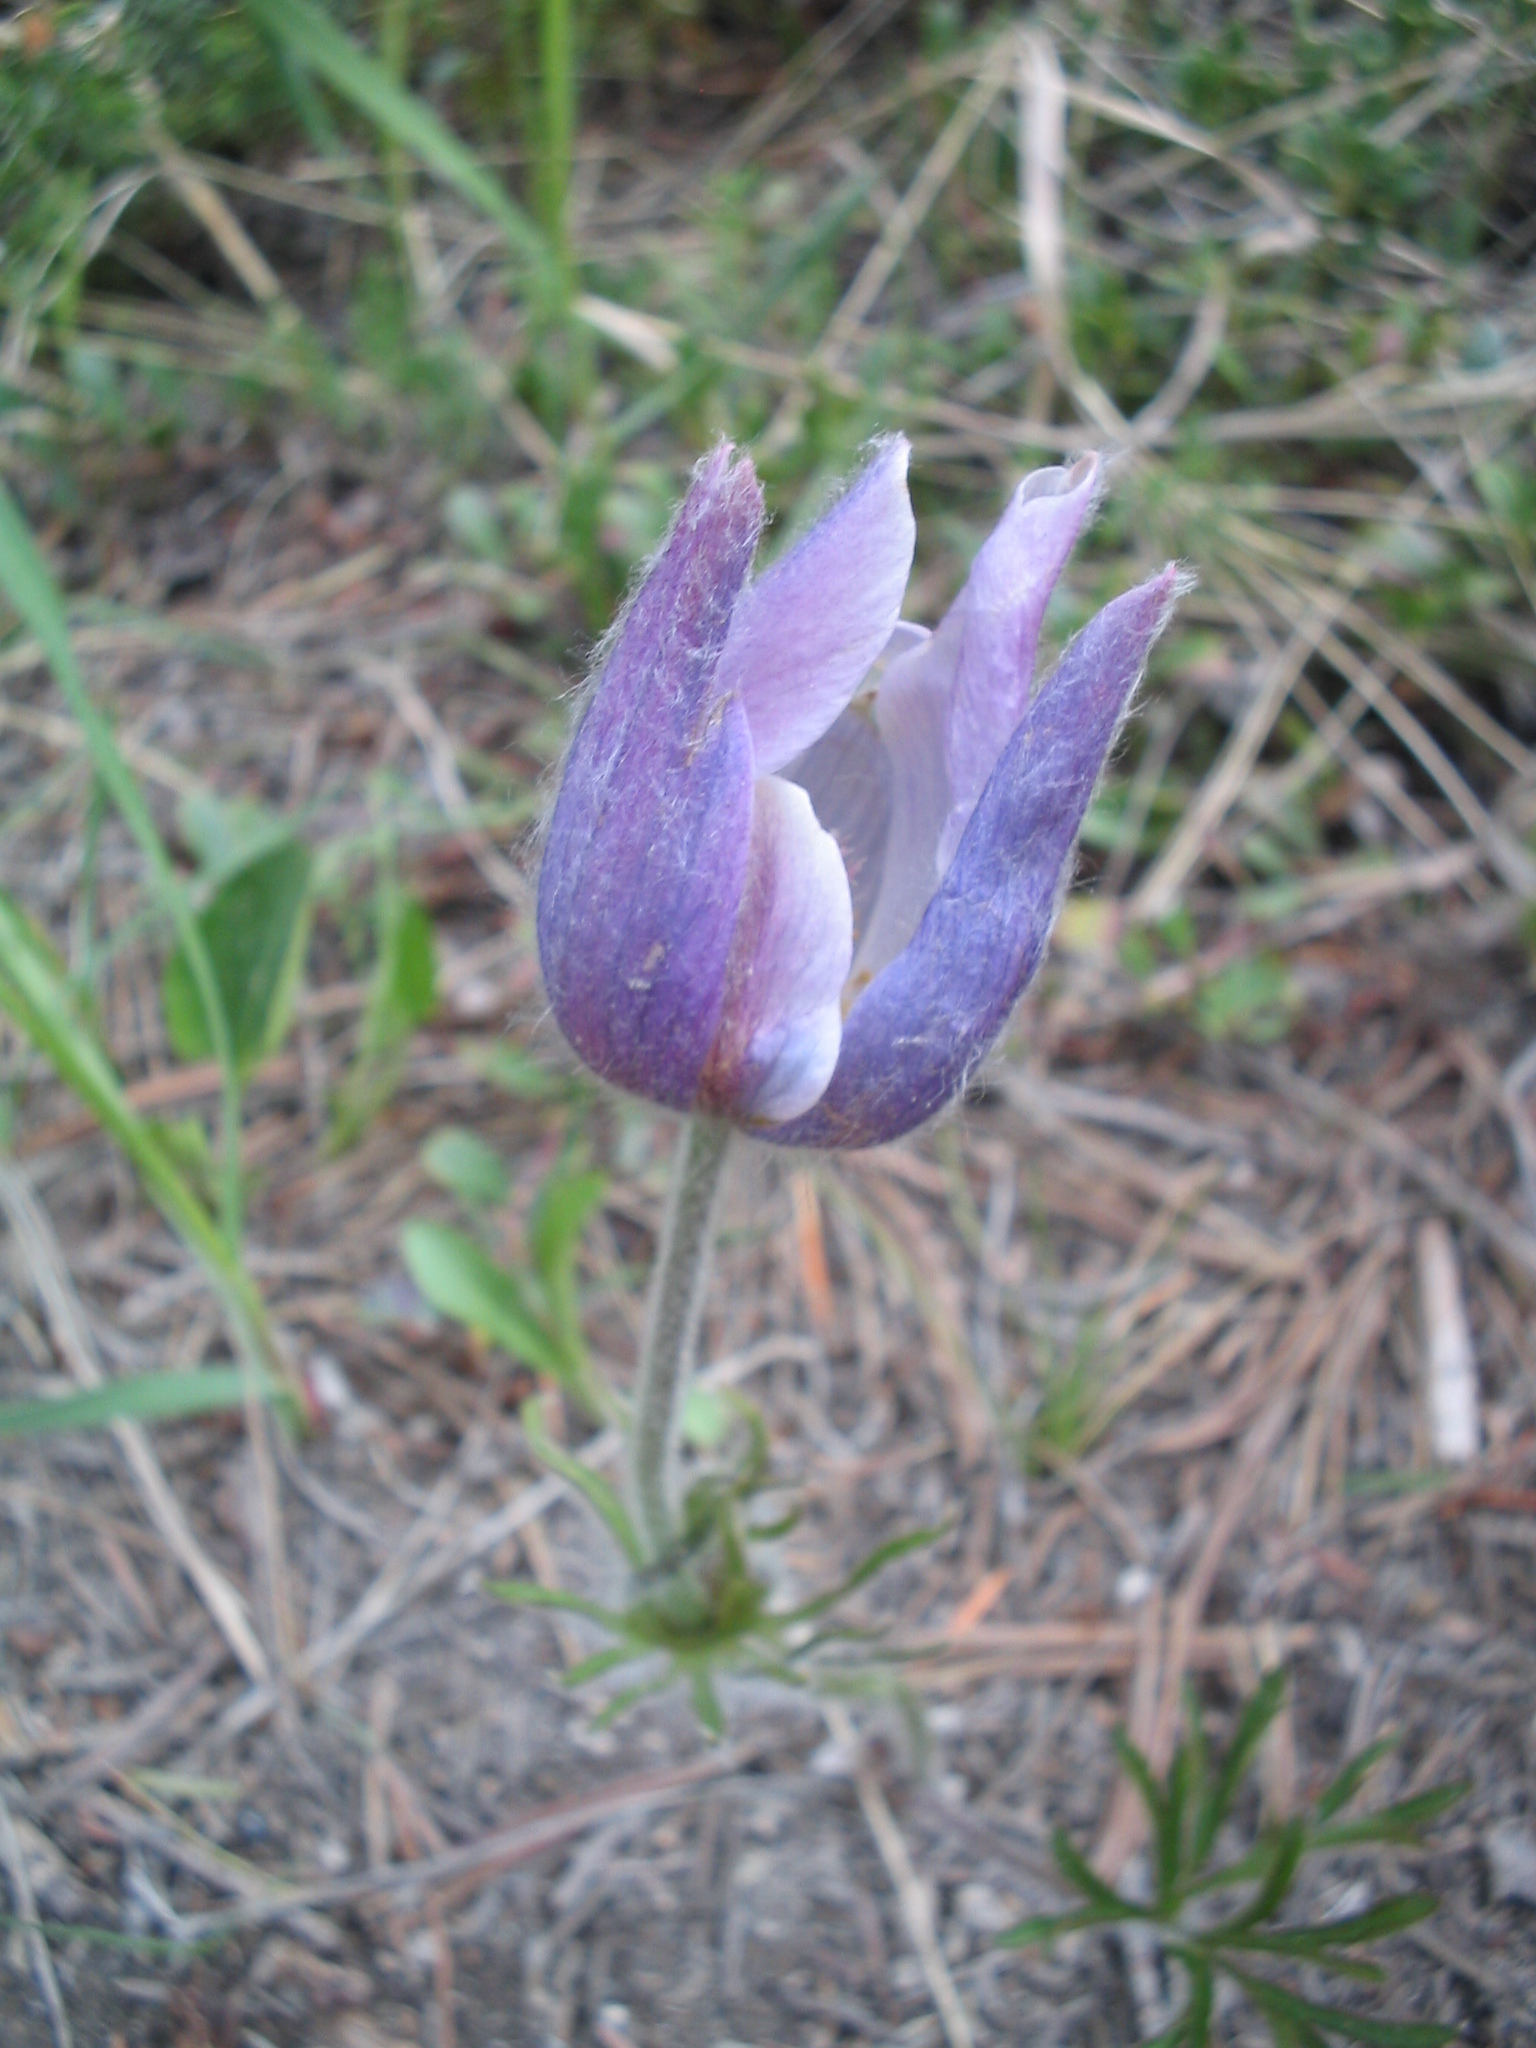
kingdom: Plantae
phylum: Tracheophyta
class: Magnoliopsida
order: Ranunculales
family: Ranunculaceae
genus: Pulsatilla
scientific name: Pulsatilla nuttalliana
